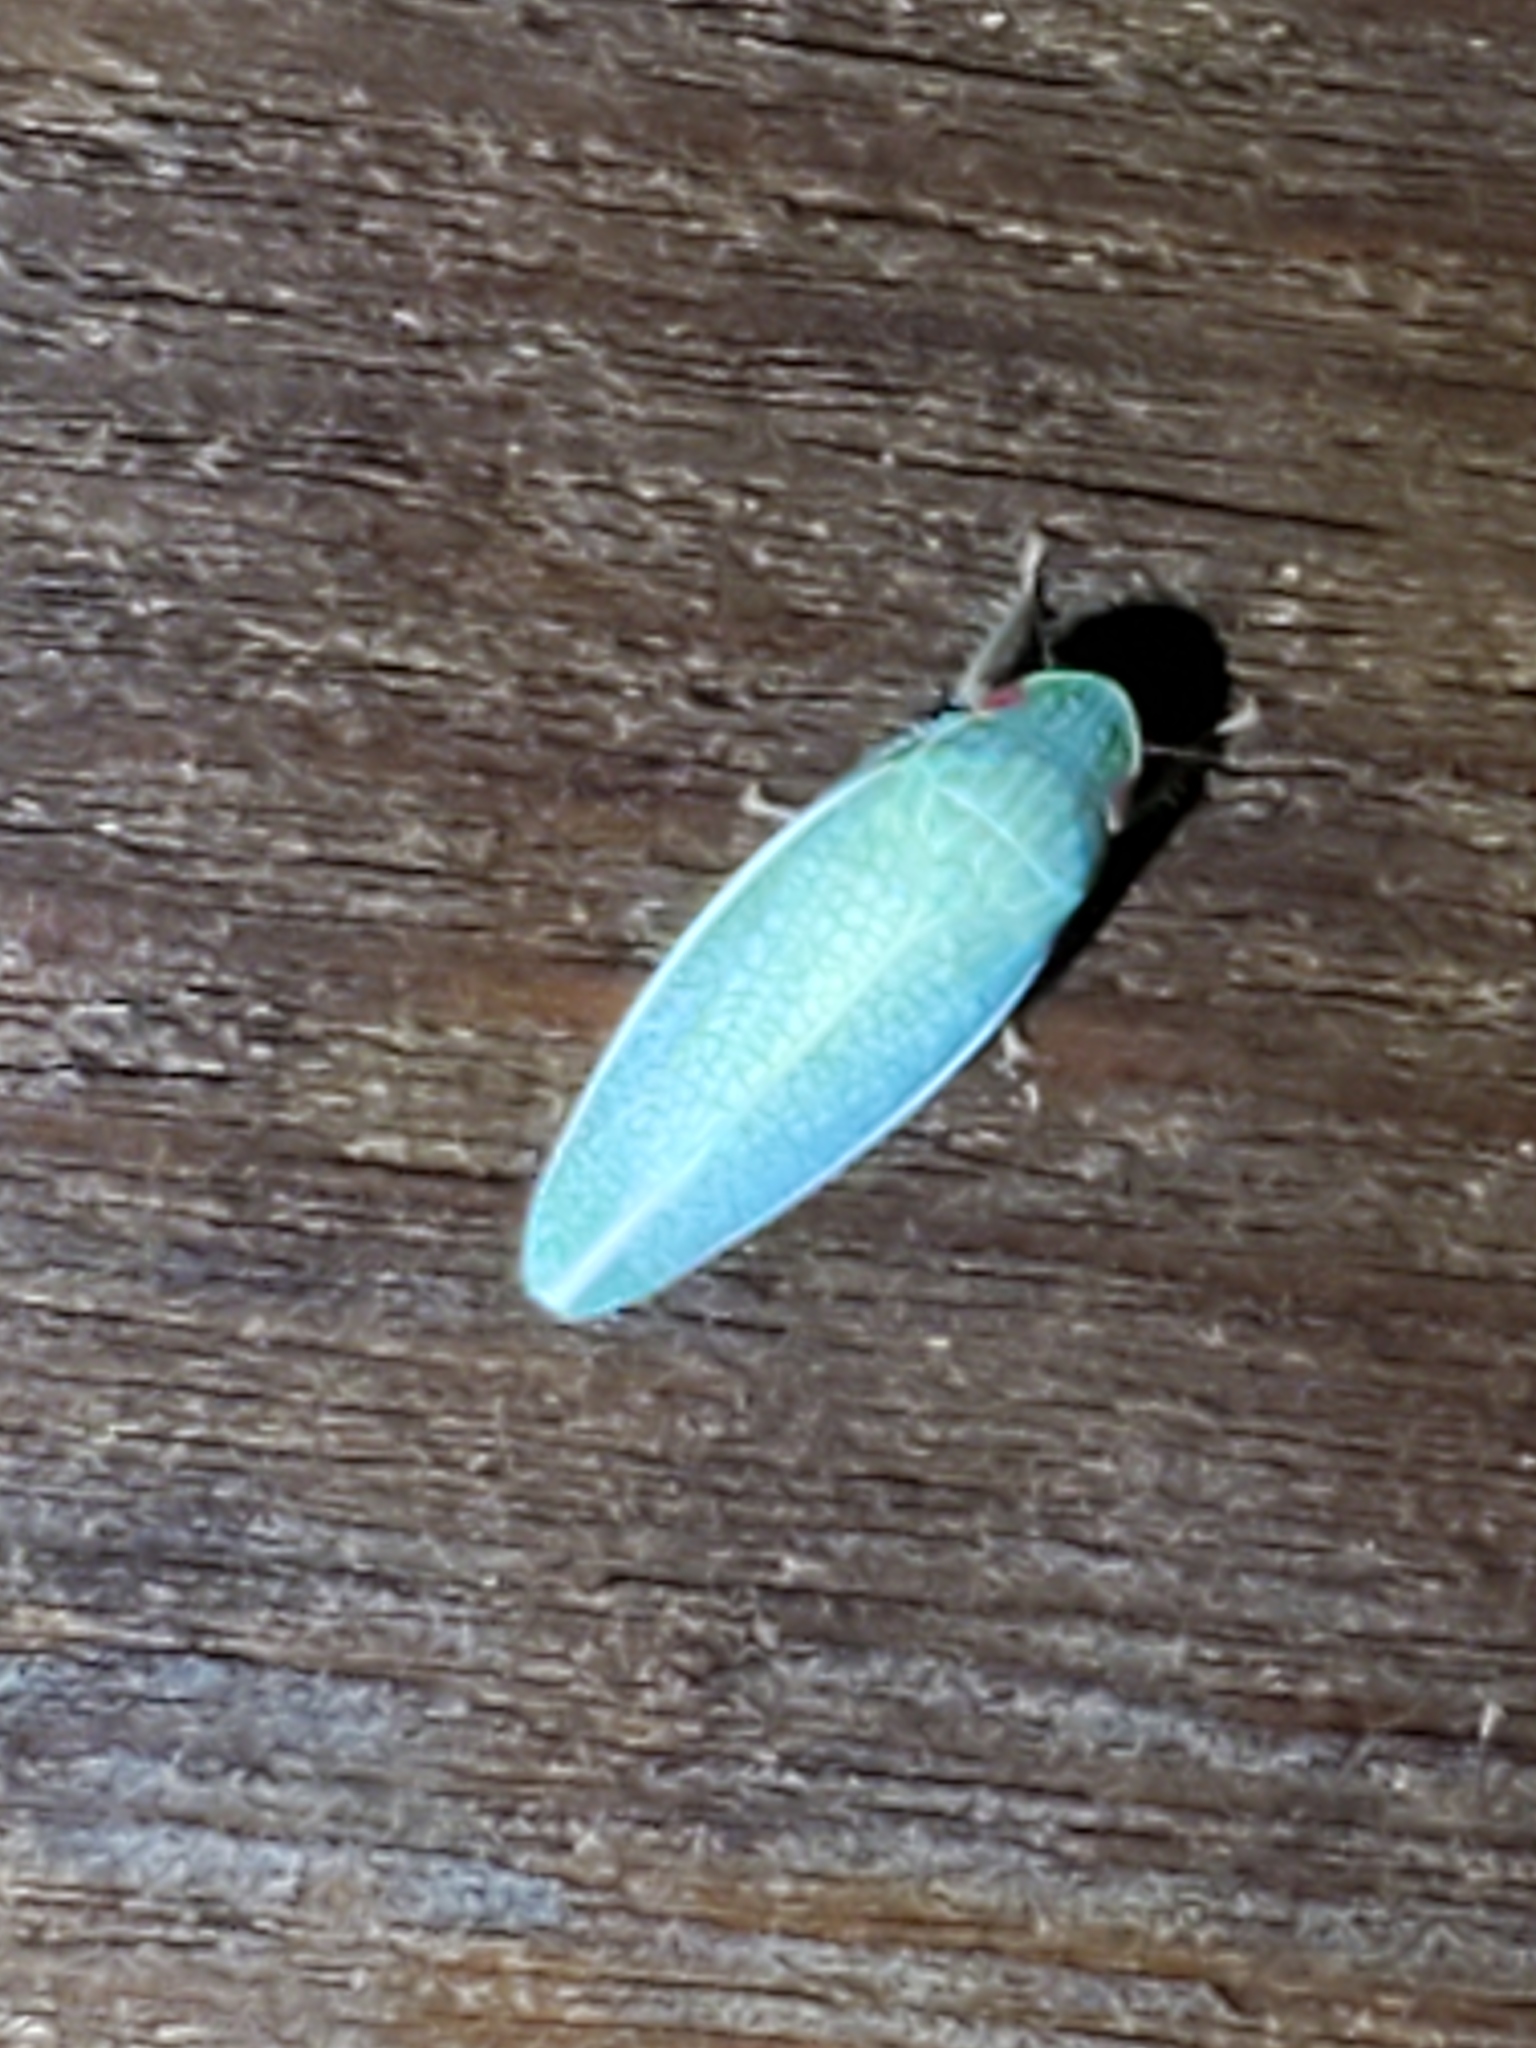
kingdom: Animalia
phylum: Arthropoda
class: Insecta
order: Hemiptera
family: Cicadellidae
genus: Gyponana
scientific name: Gyponana procera
